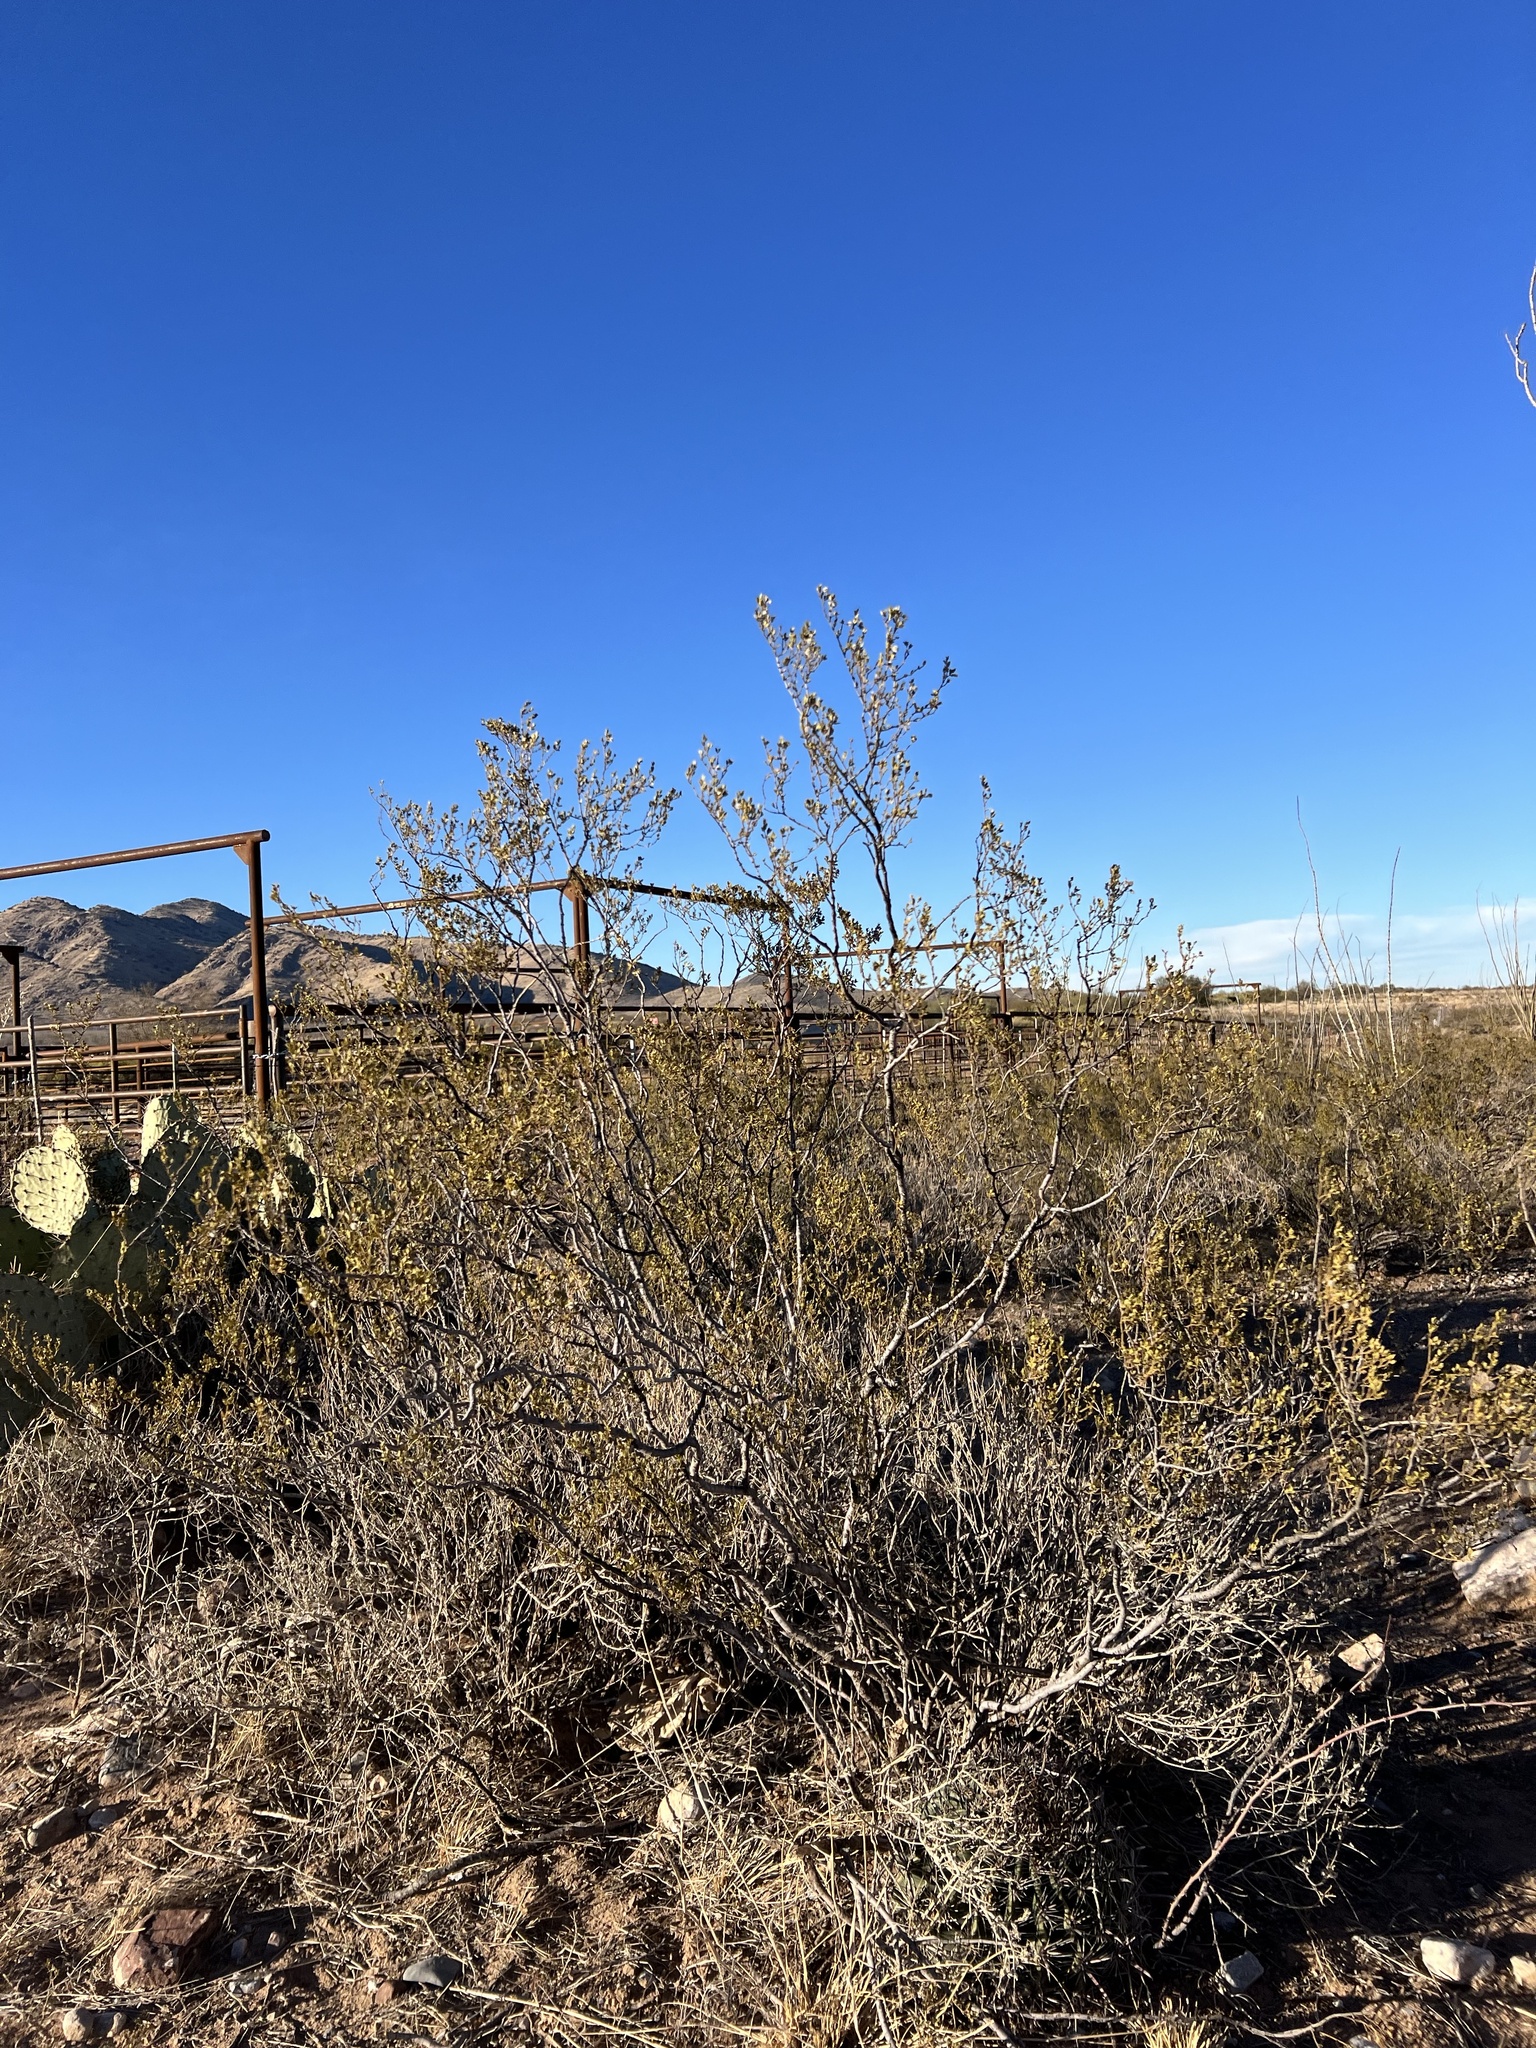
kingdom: Plantae
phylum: Tracheophyta
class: Magnoliopsida
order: Zygophyllales
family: Zygophyllaceae
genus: Larrea
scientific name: Larrea tridentata
